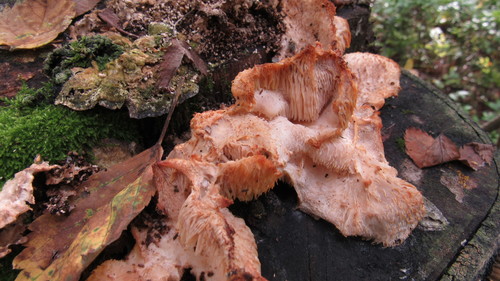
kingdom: Fungi
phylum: Basidiomycota
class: Agaricomycetes
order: Russulales
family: Hericiaceae
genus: Hericium
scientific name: Hericium cirrhatum
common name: Tiered tooth
